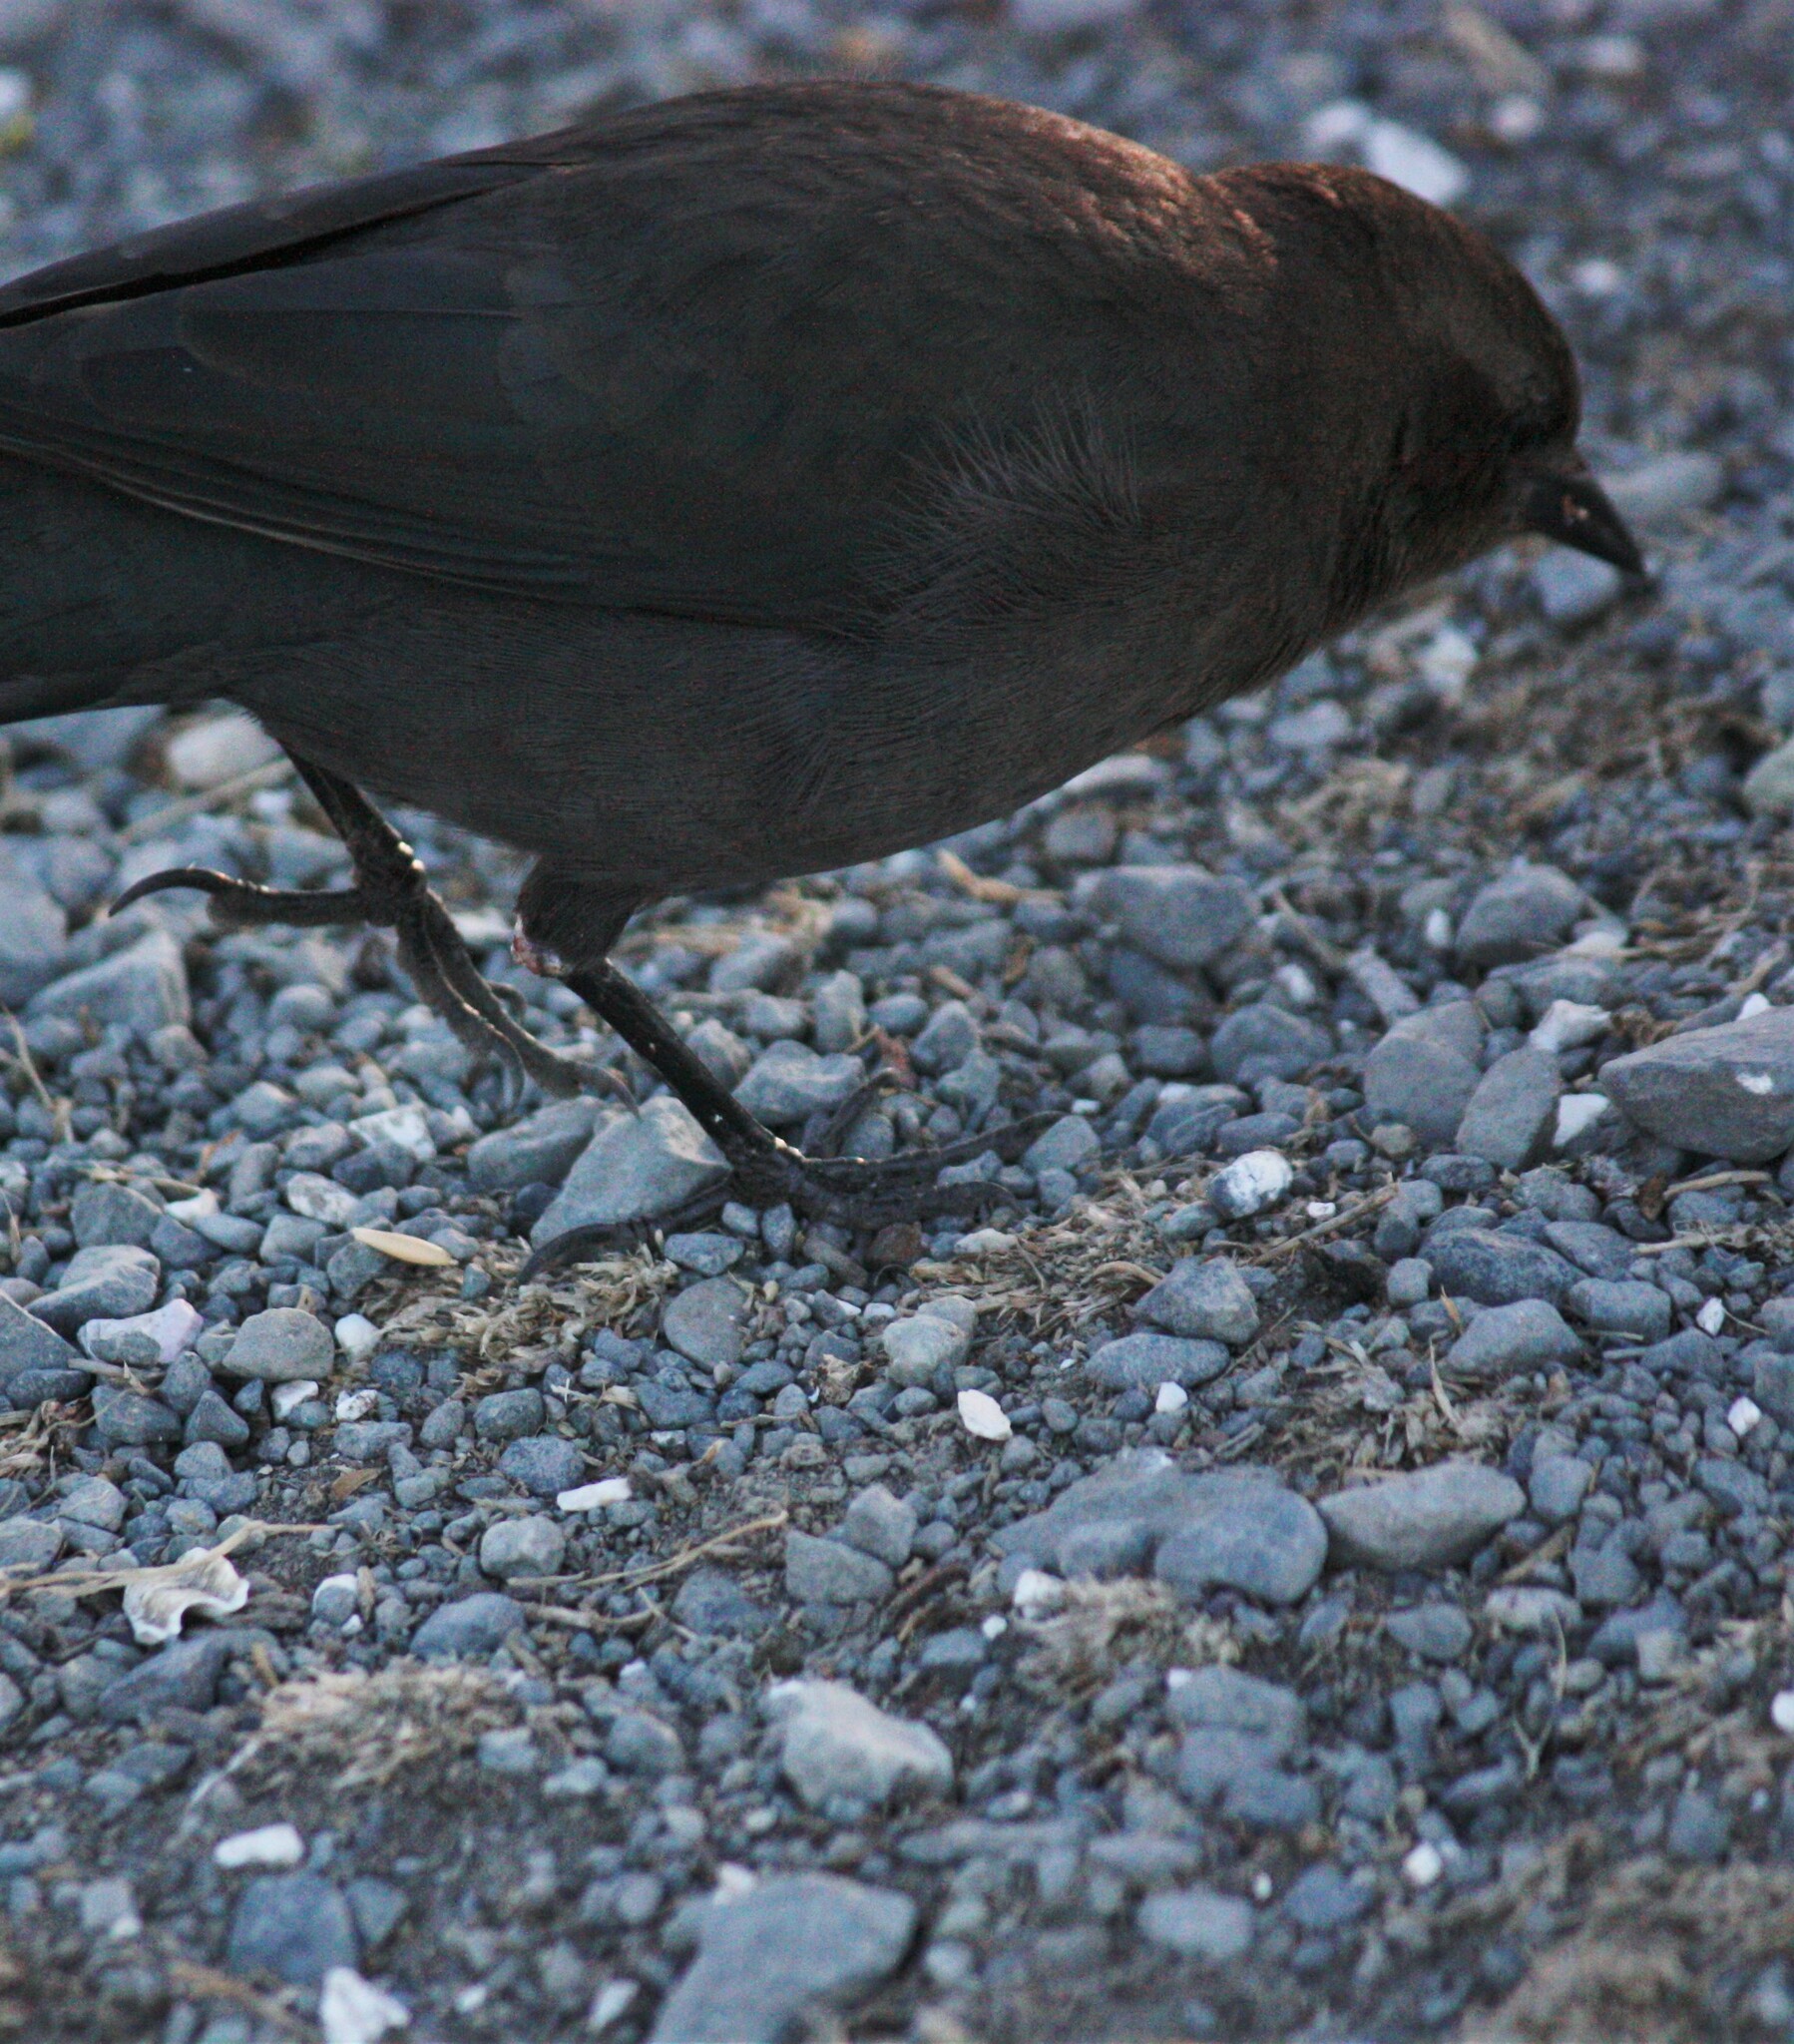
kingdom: Viruses
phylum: Nucleocytoviricota
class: Pokkesviricetes
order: Chitovirales
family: Poxviridae
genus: Avipoxvirus
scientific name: Avipoxvirus
